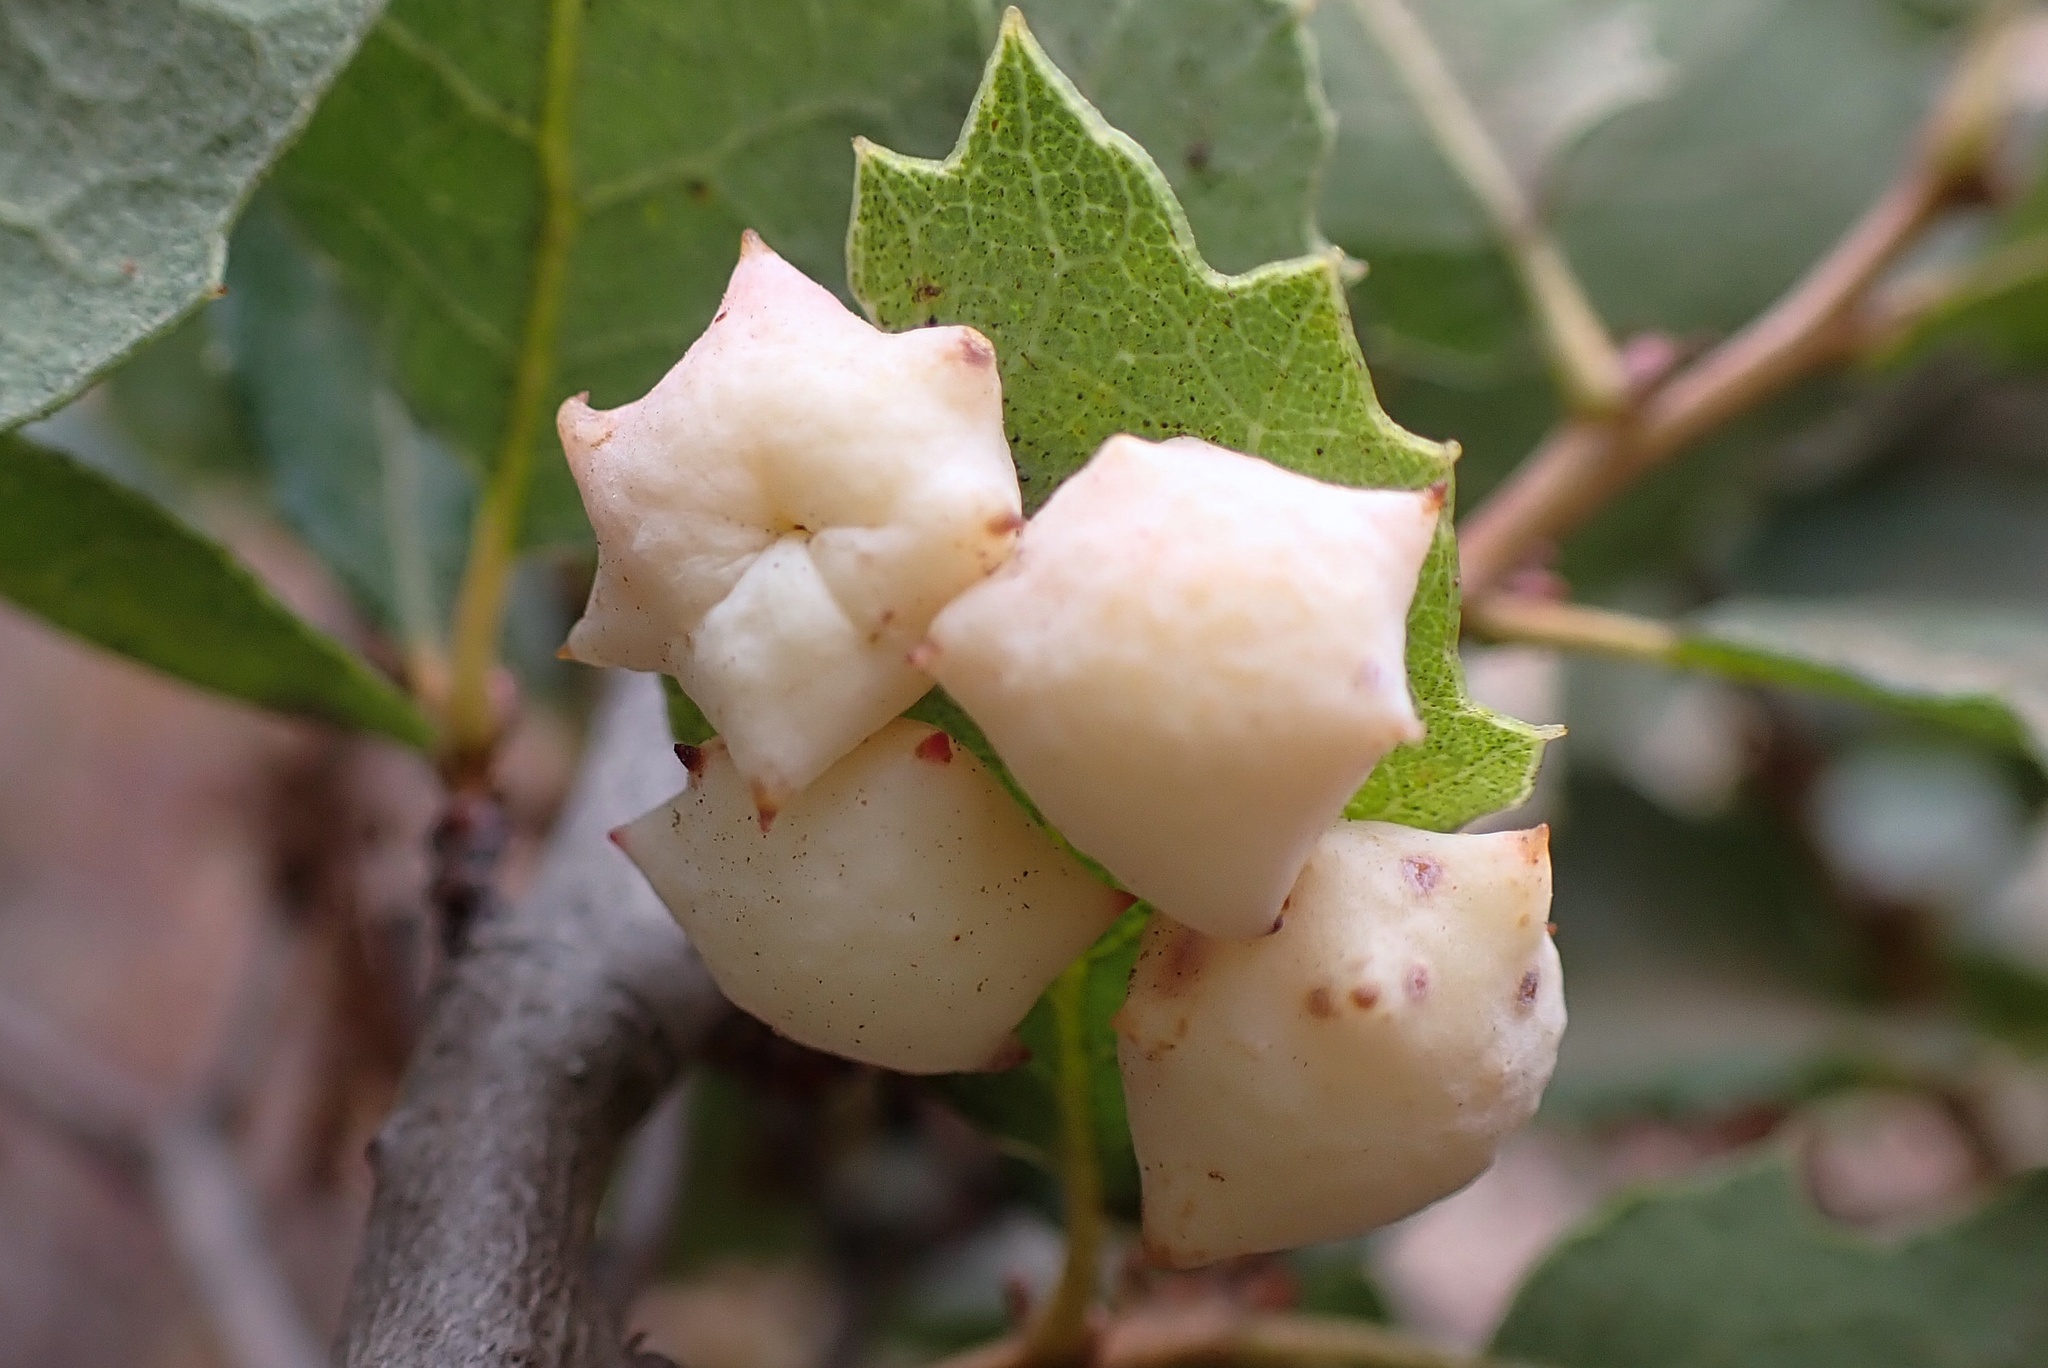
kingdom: Animalia
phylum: Arthropoda
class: Insecta
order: Hymenoptera
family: Cynipidae
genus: Cynips
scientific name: Cynips douglasi
